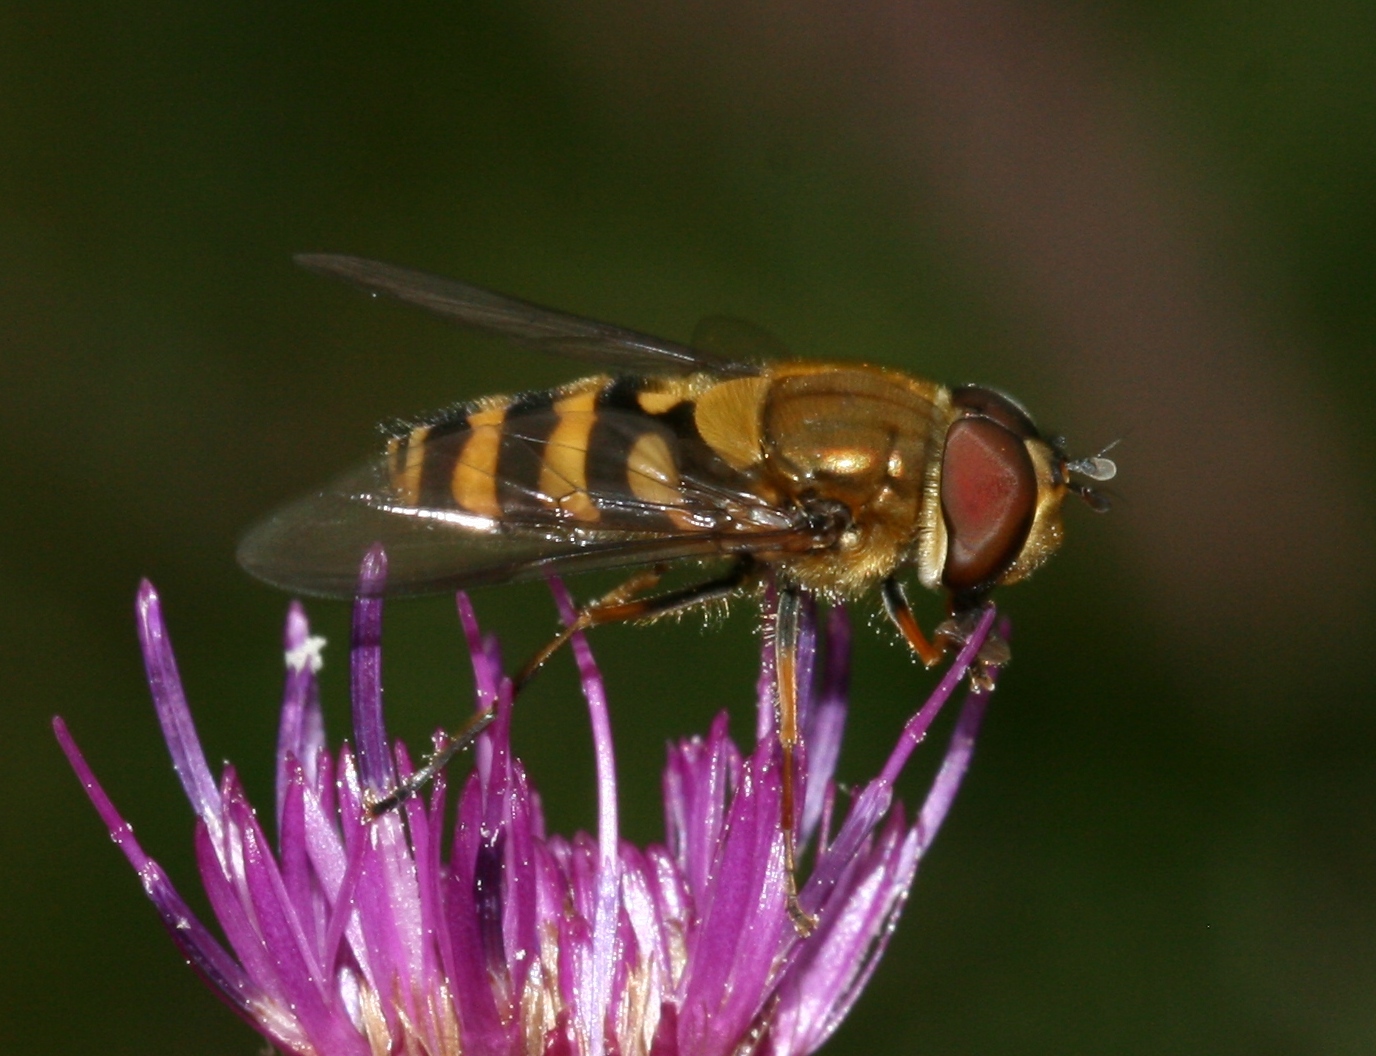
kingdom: Animalia
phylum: Arthropoda
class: Insecta
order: Diptera
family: Syrphidae
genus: Syrphus
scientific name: Syrphus torvus
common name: Hairy-eyed flower fly
